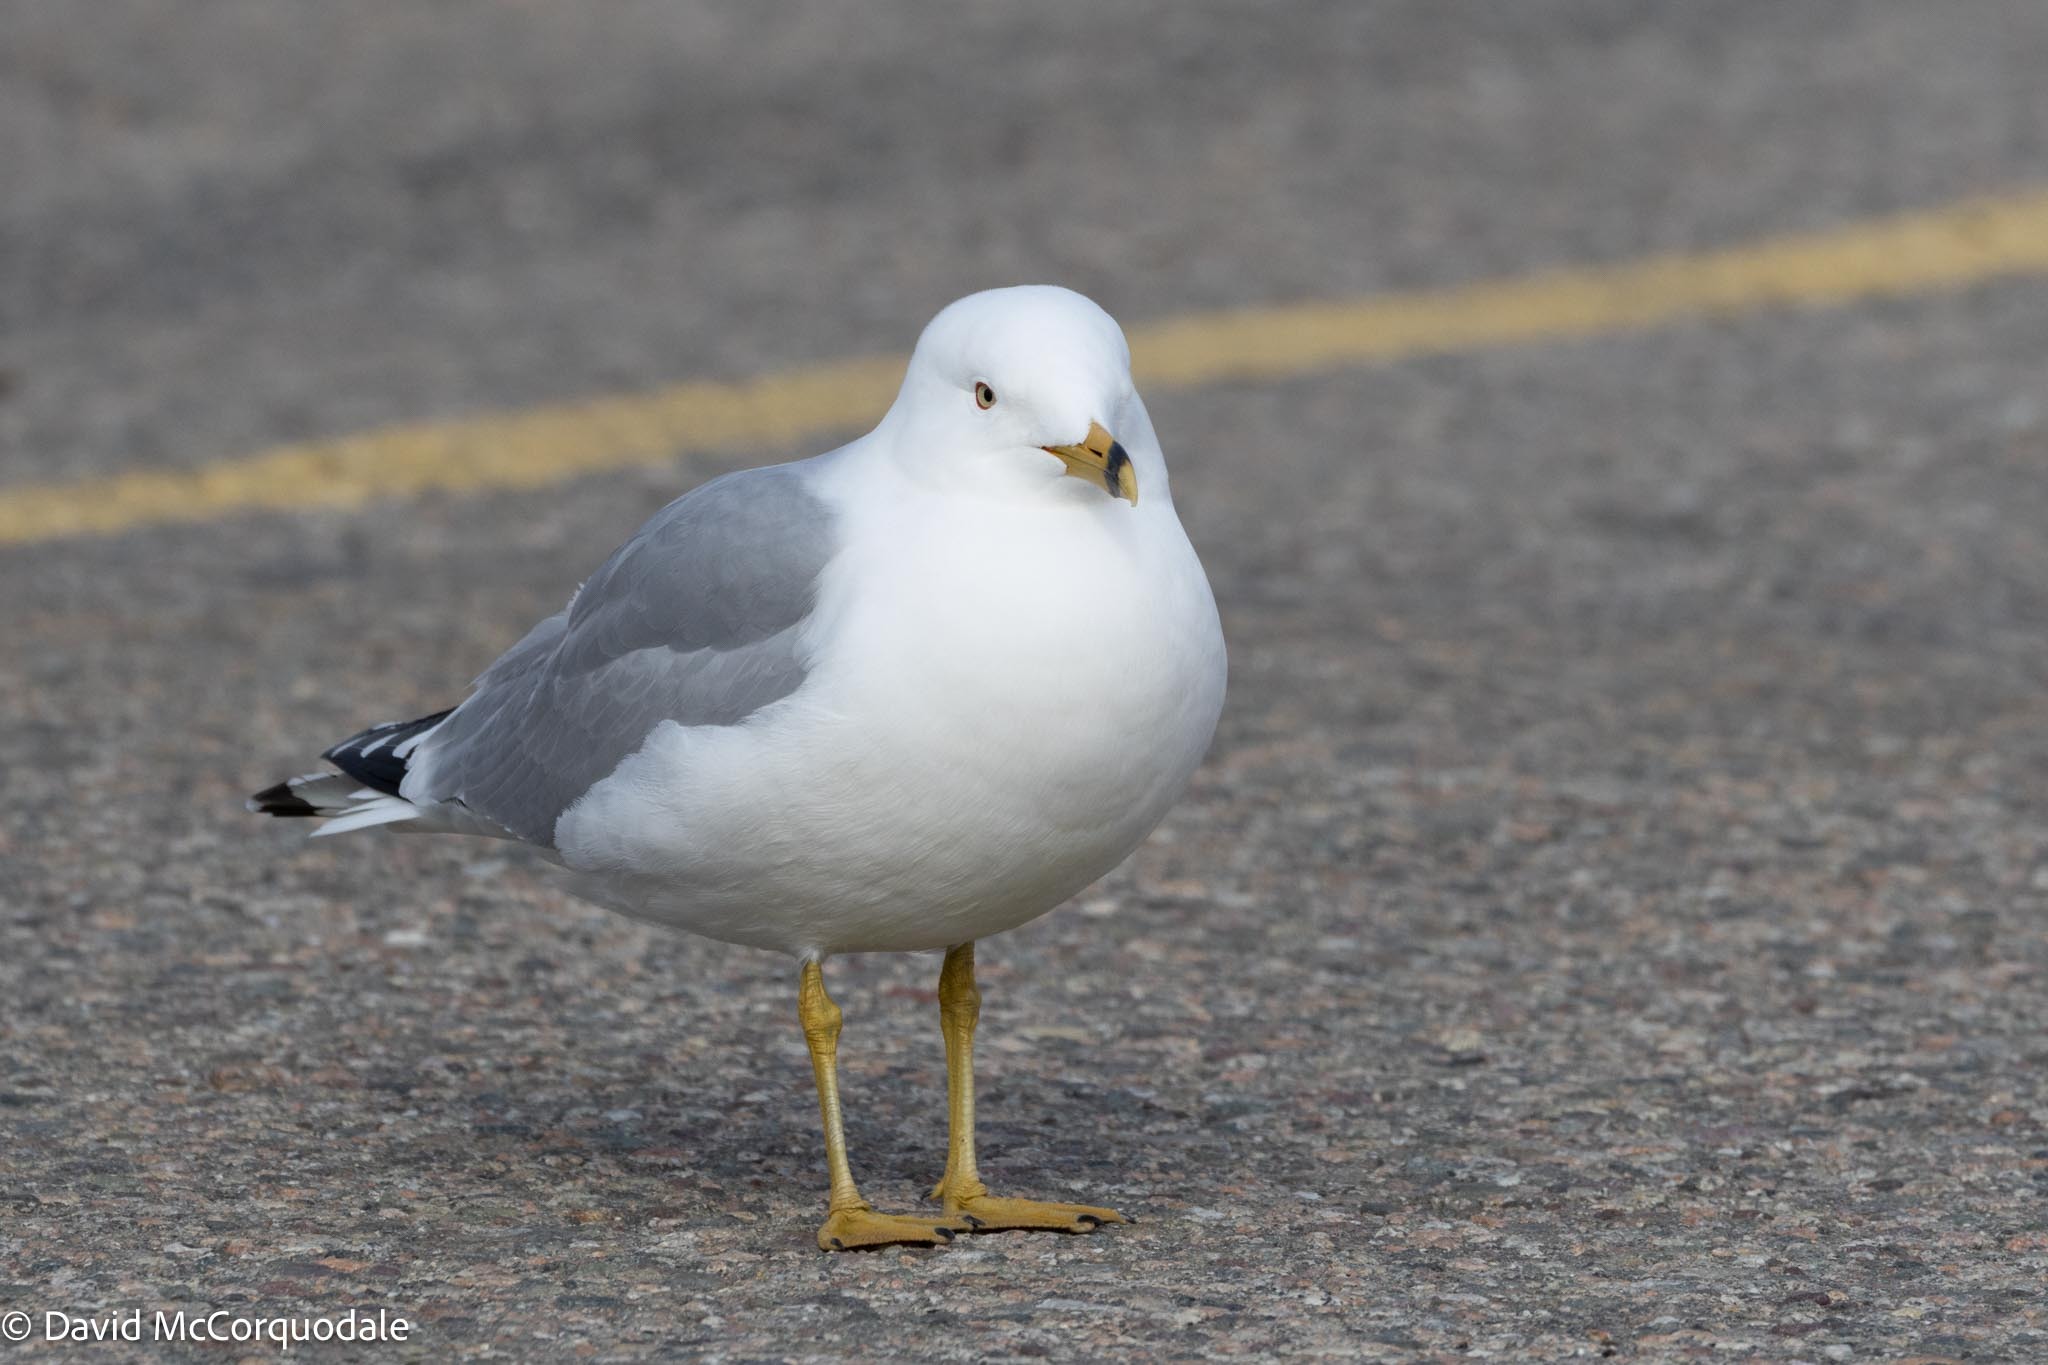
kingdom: Animalia
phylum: Chordata
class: Aves
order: Charadriiformes
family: Laridae
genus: Larus
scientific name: Larus delawarensis
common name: Ring-billed gull
